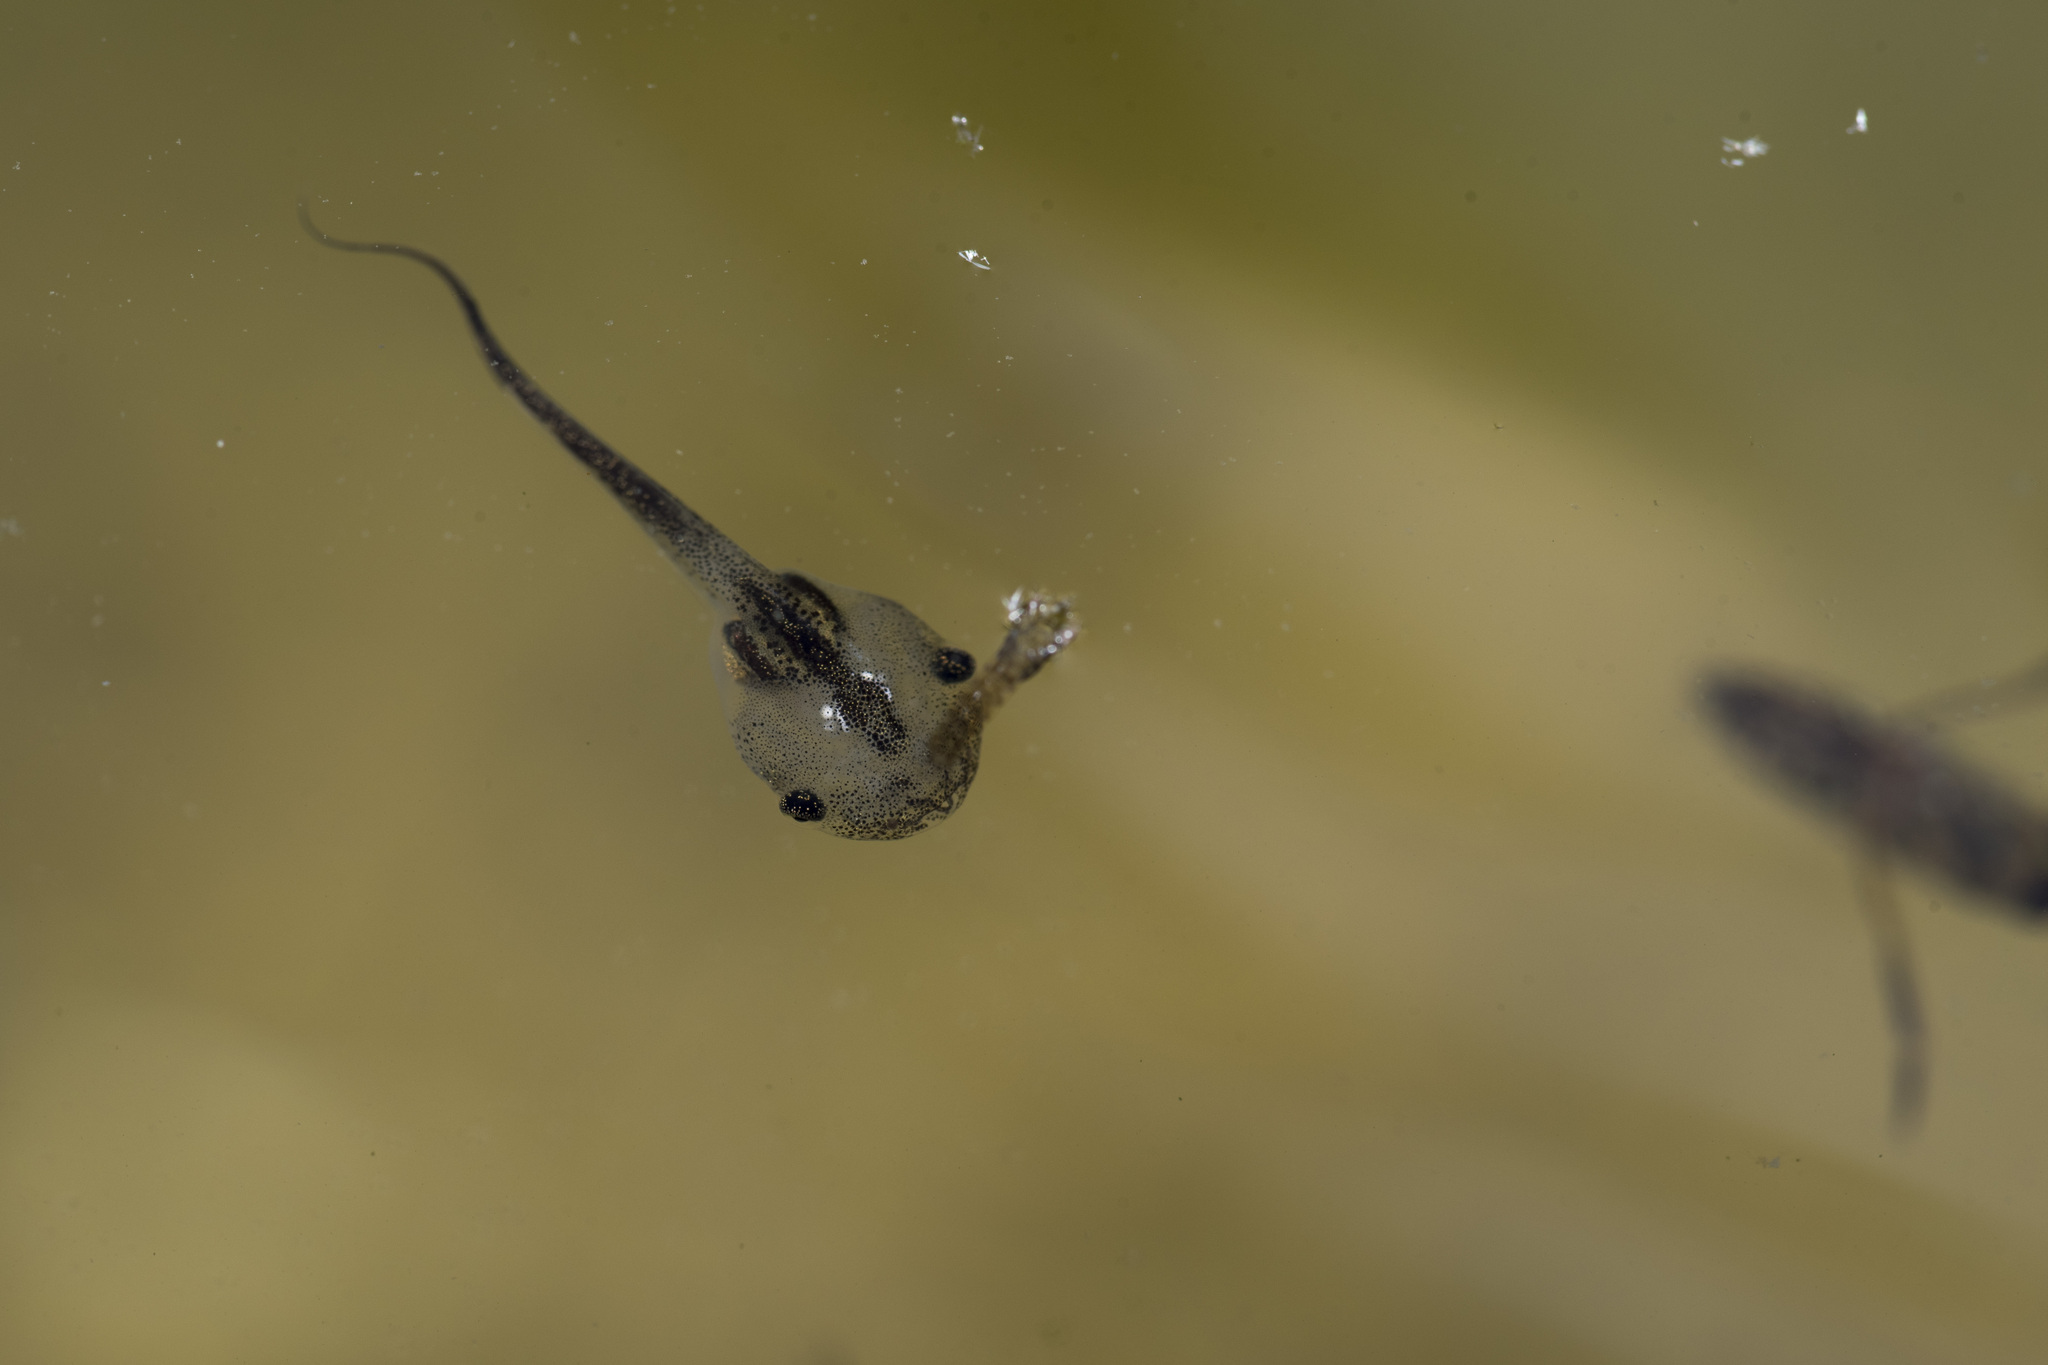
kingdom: Animalia
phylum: Chordata
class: Amphibia
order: Anura
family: Microhylidae
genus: Microhyla
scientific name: Microhyla fissipes
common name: Ornate narrow-mouthed frog
